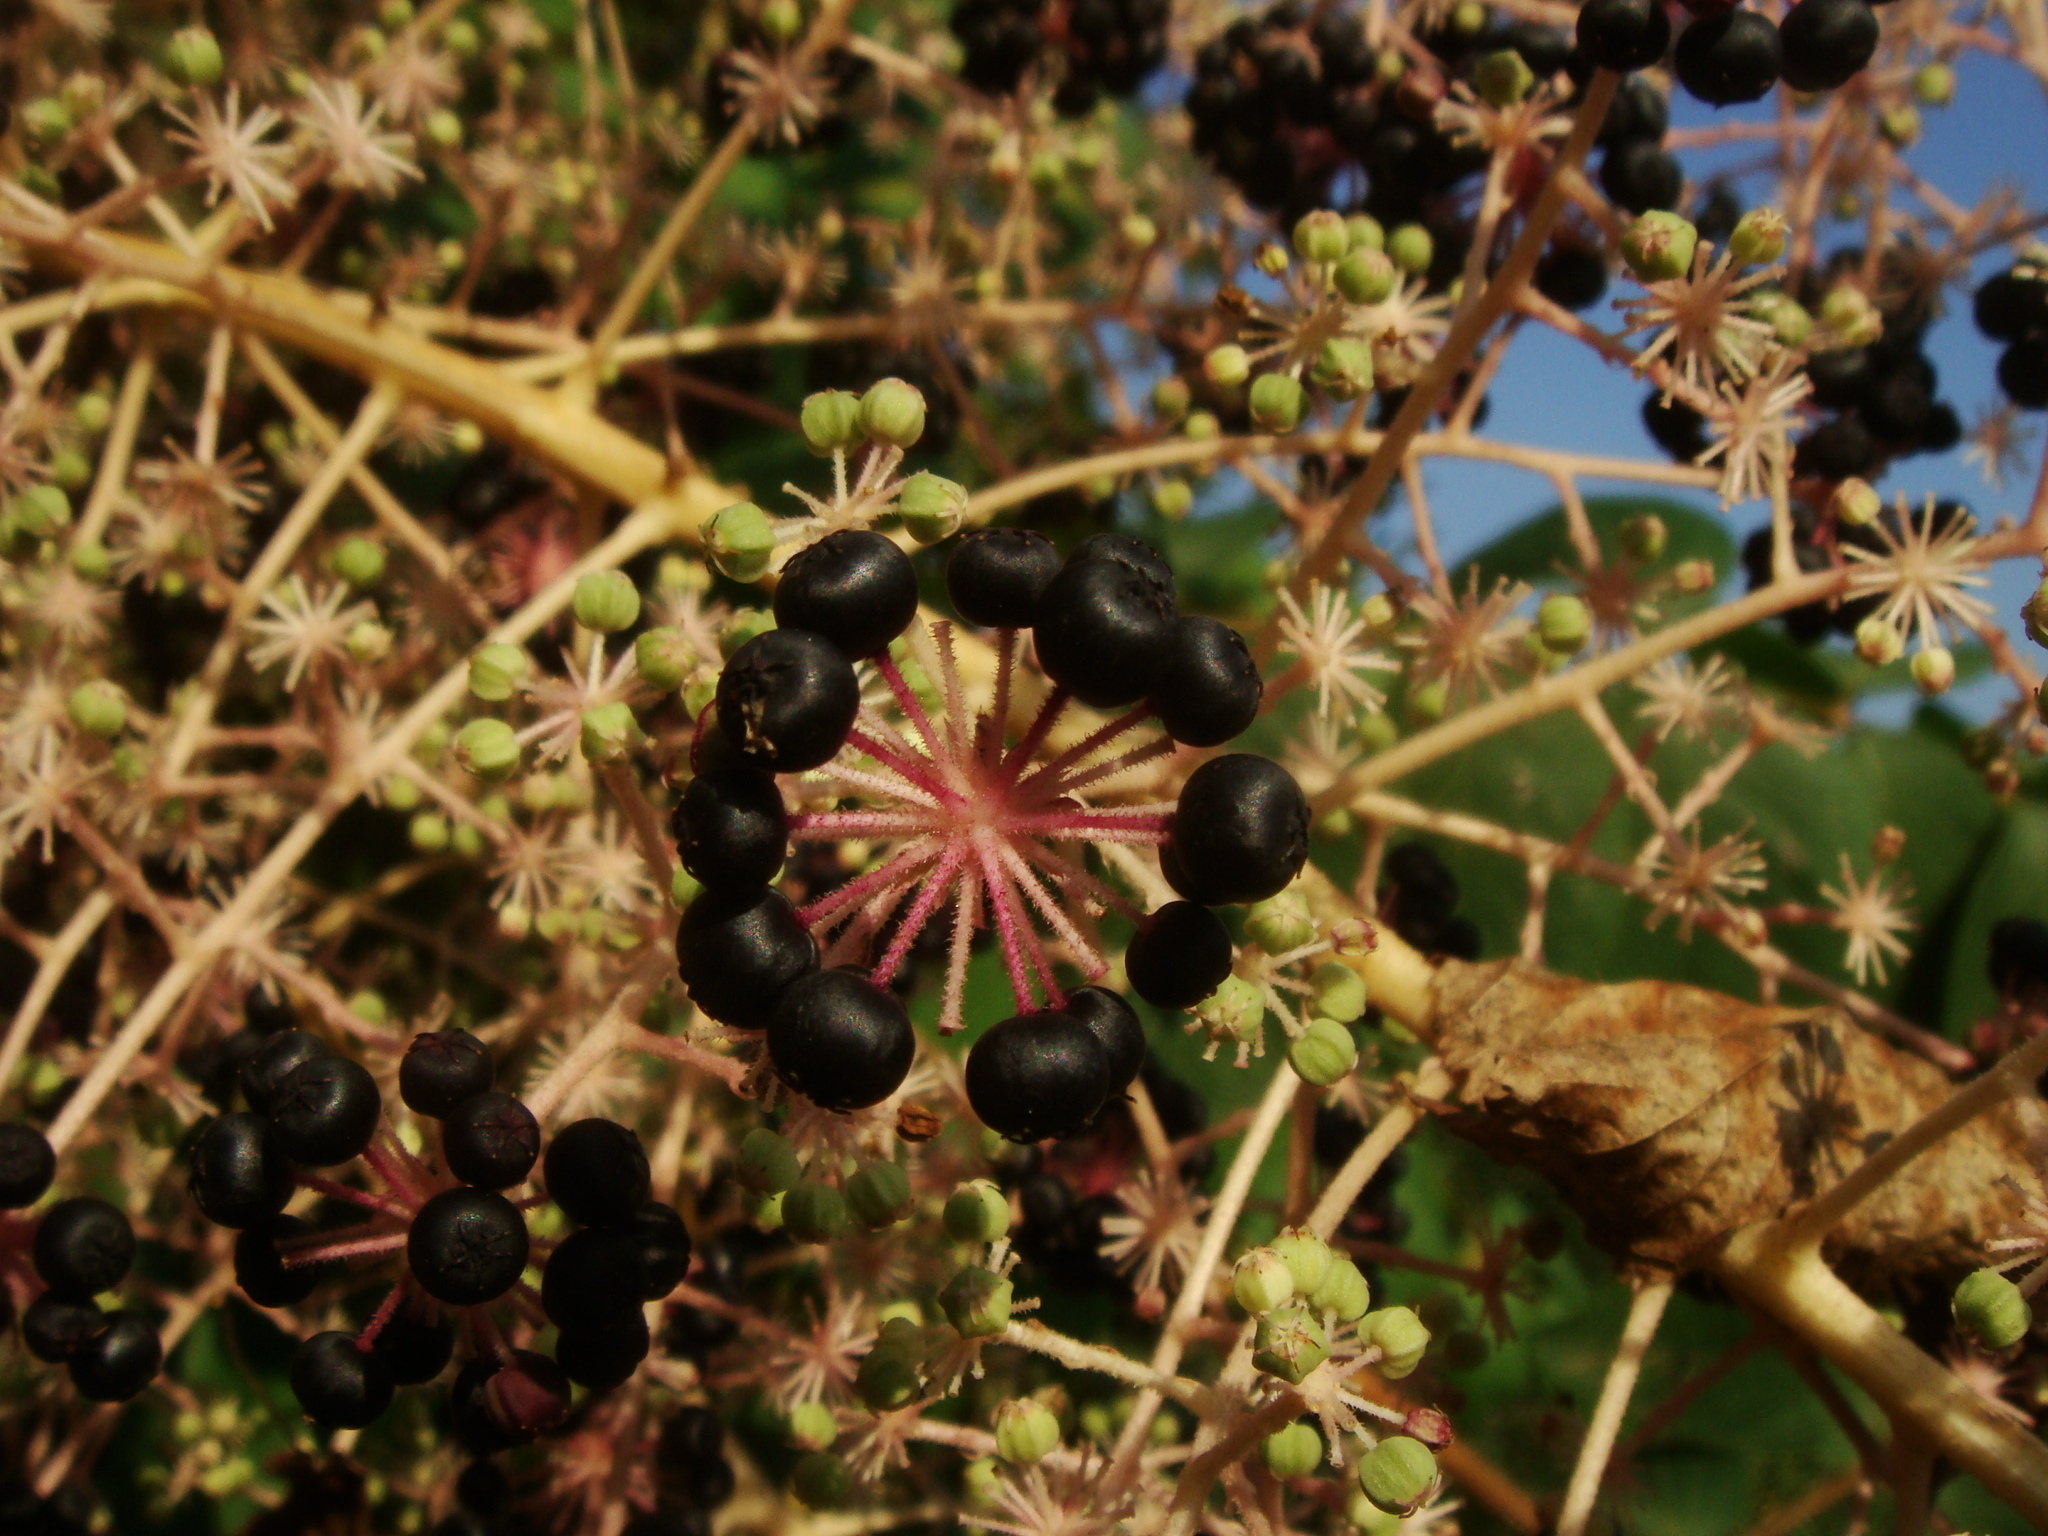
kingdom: Plantae
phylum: Tracheophyta
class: Magnoliopsida
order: Apiales
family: Araliaceae
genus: Aralia
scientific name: Aralia elata
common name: Japanese angelica-tree
